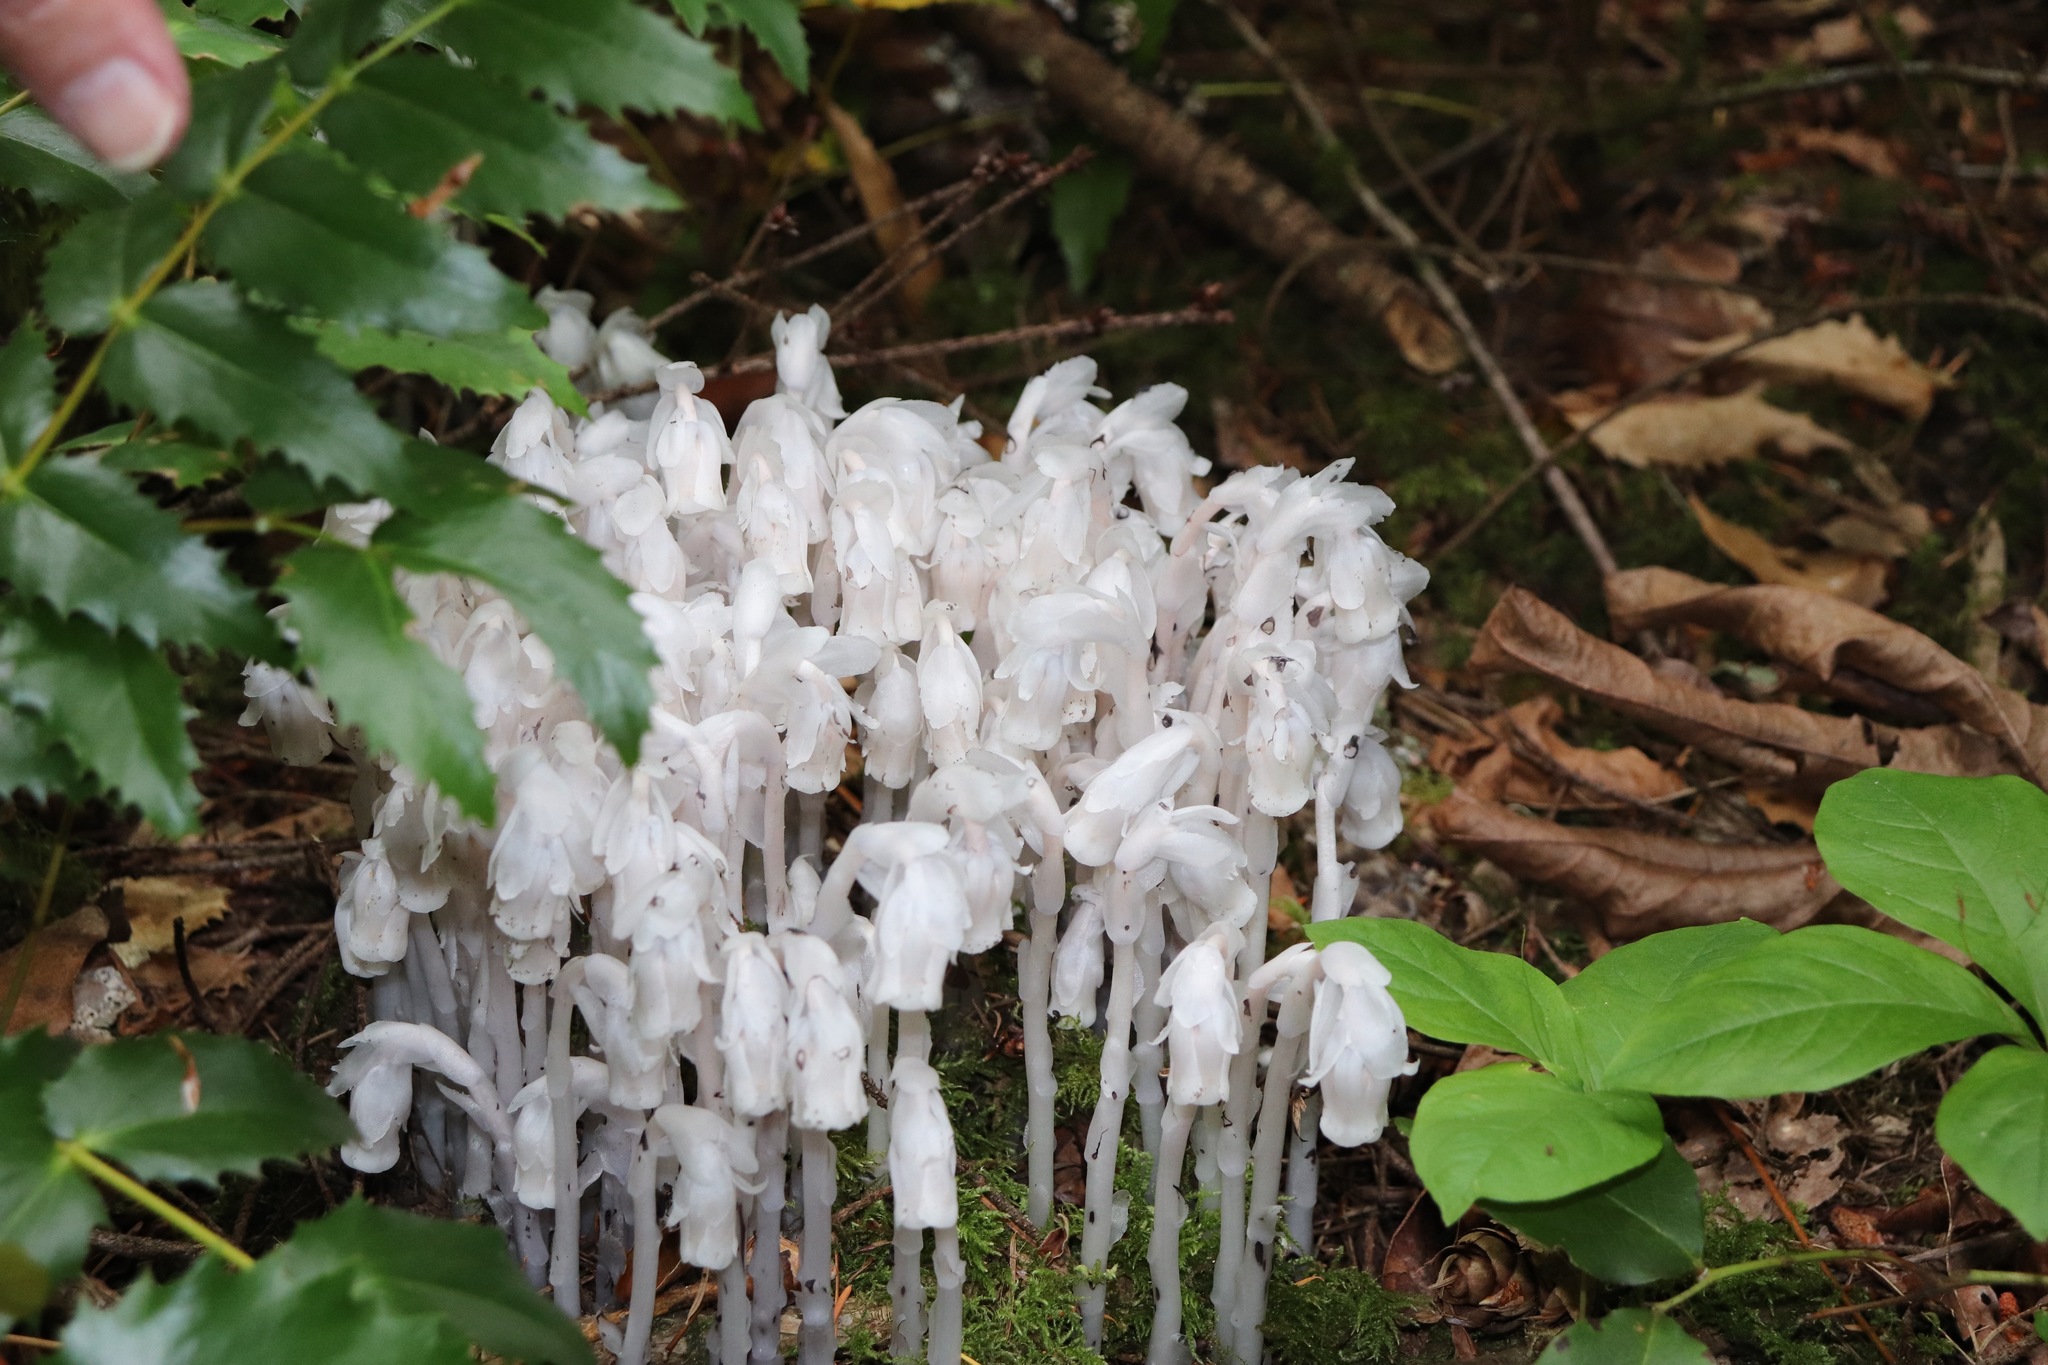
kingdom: Plantae
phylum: Tracheophyta
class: Magnoliopsida
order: Ericales
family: Ericaceae
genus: Monotropa
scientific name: Monotropa uniflora
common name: Convulsion root
